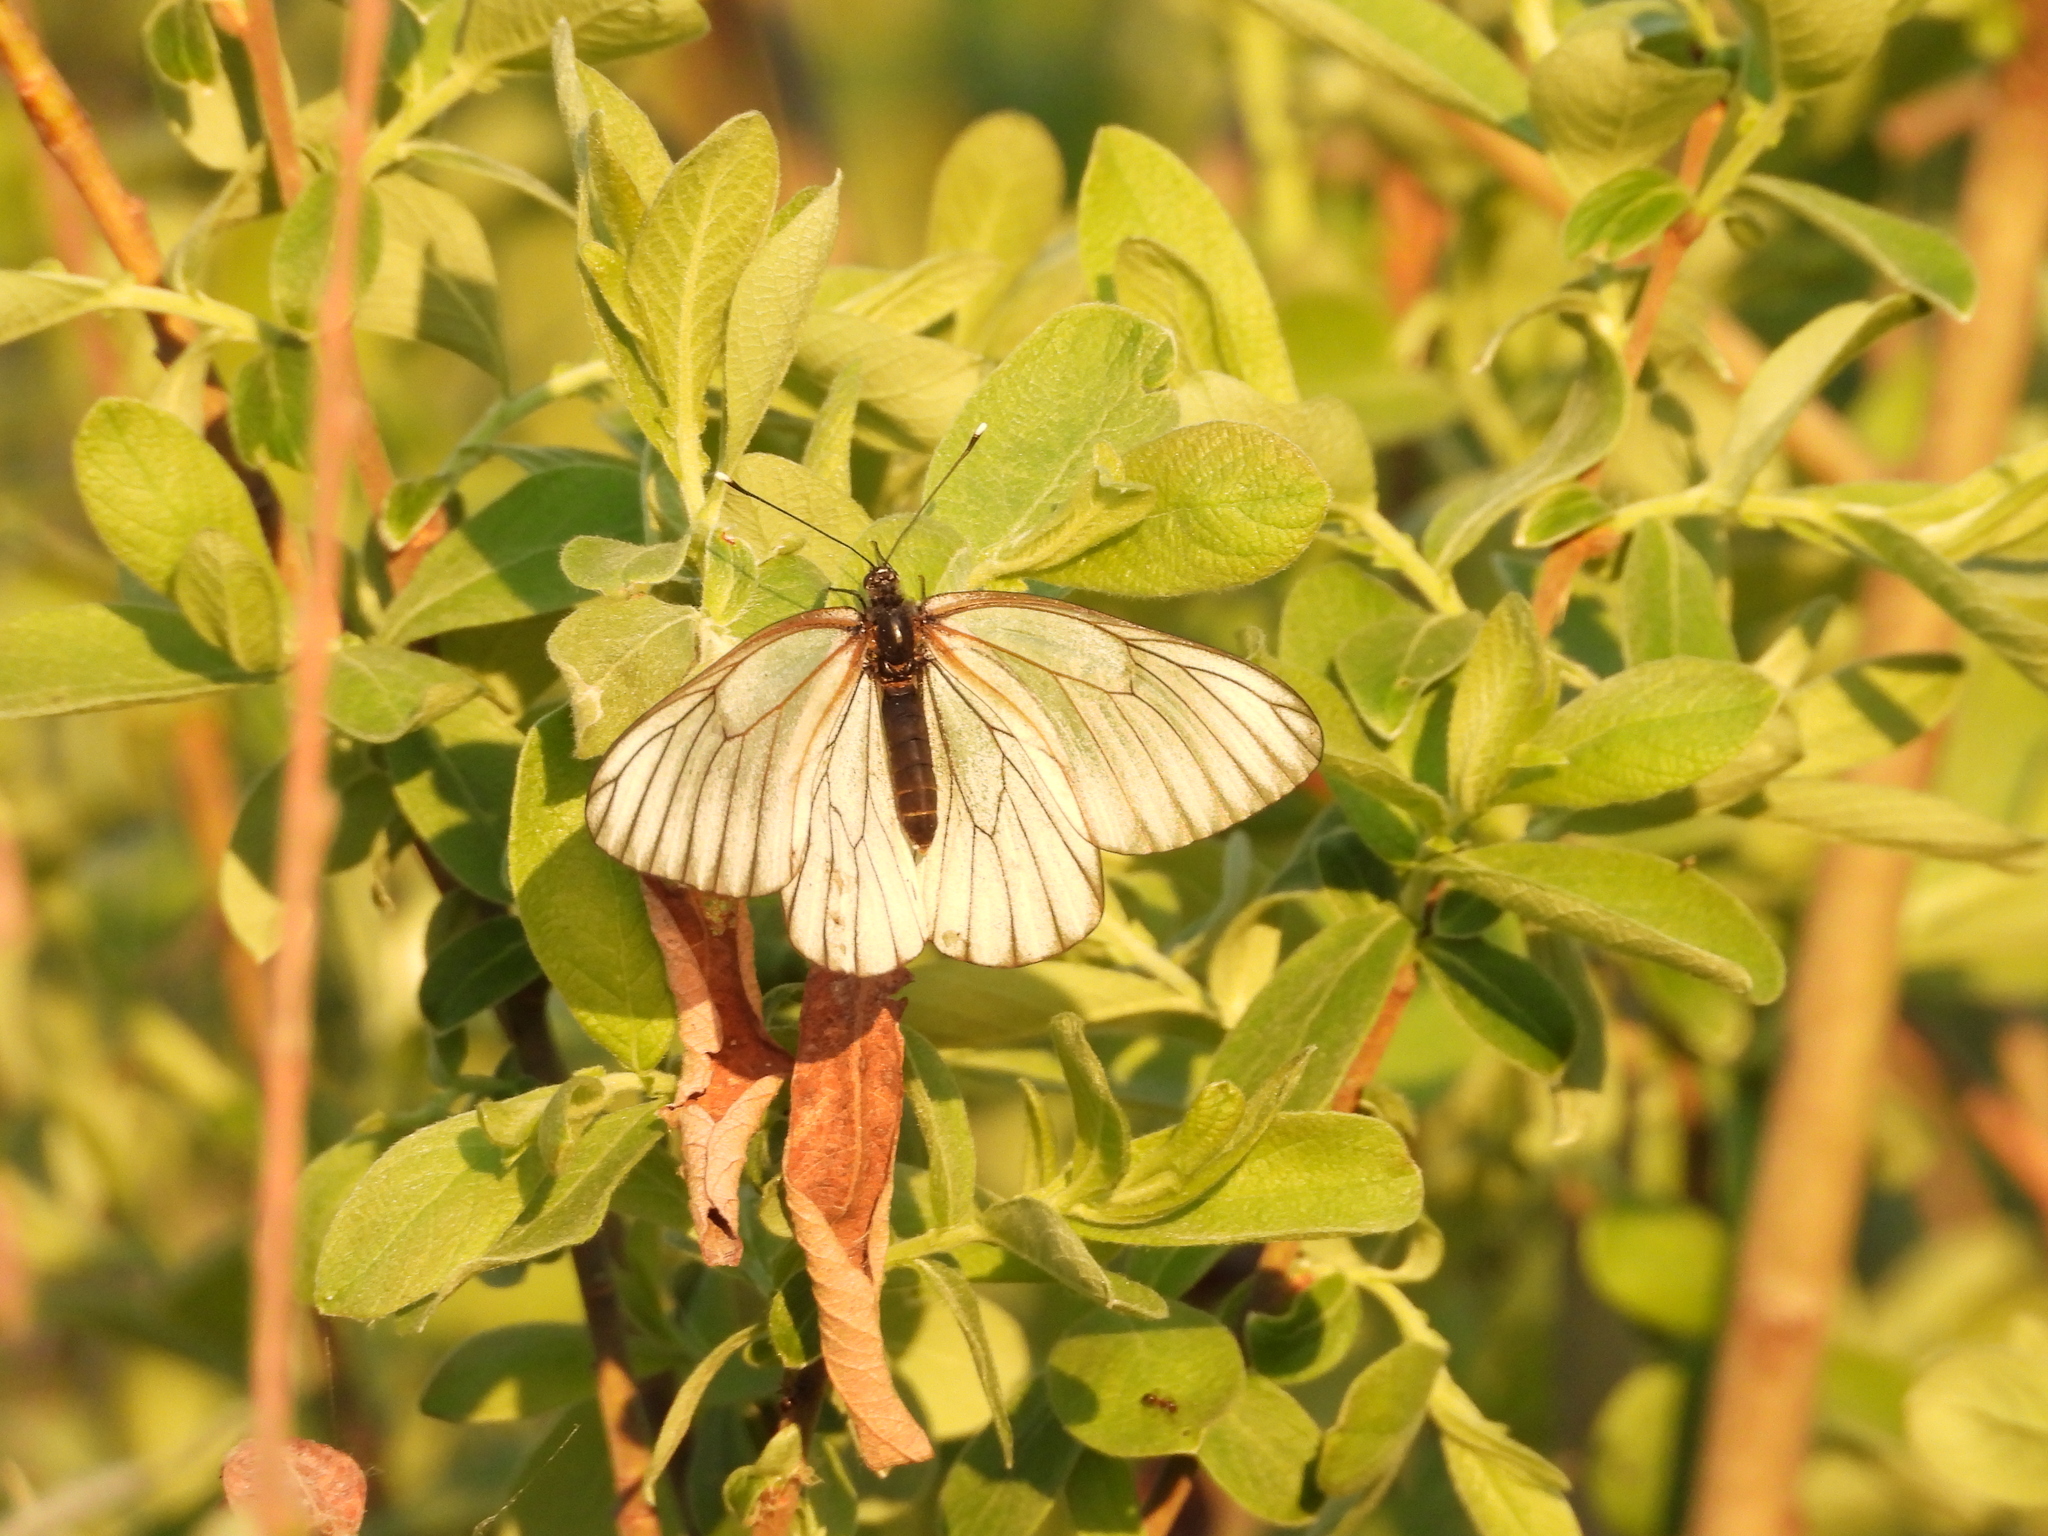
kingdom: Animalia
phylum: Arthropoda
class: Insecta
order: Lepidoptera
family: Pieridae
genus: Aporia
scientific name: Aporia crataegi
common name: Black-veined white
